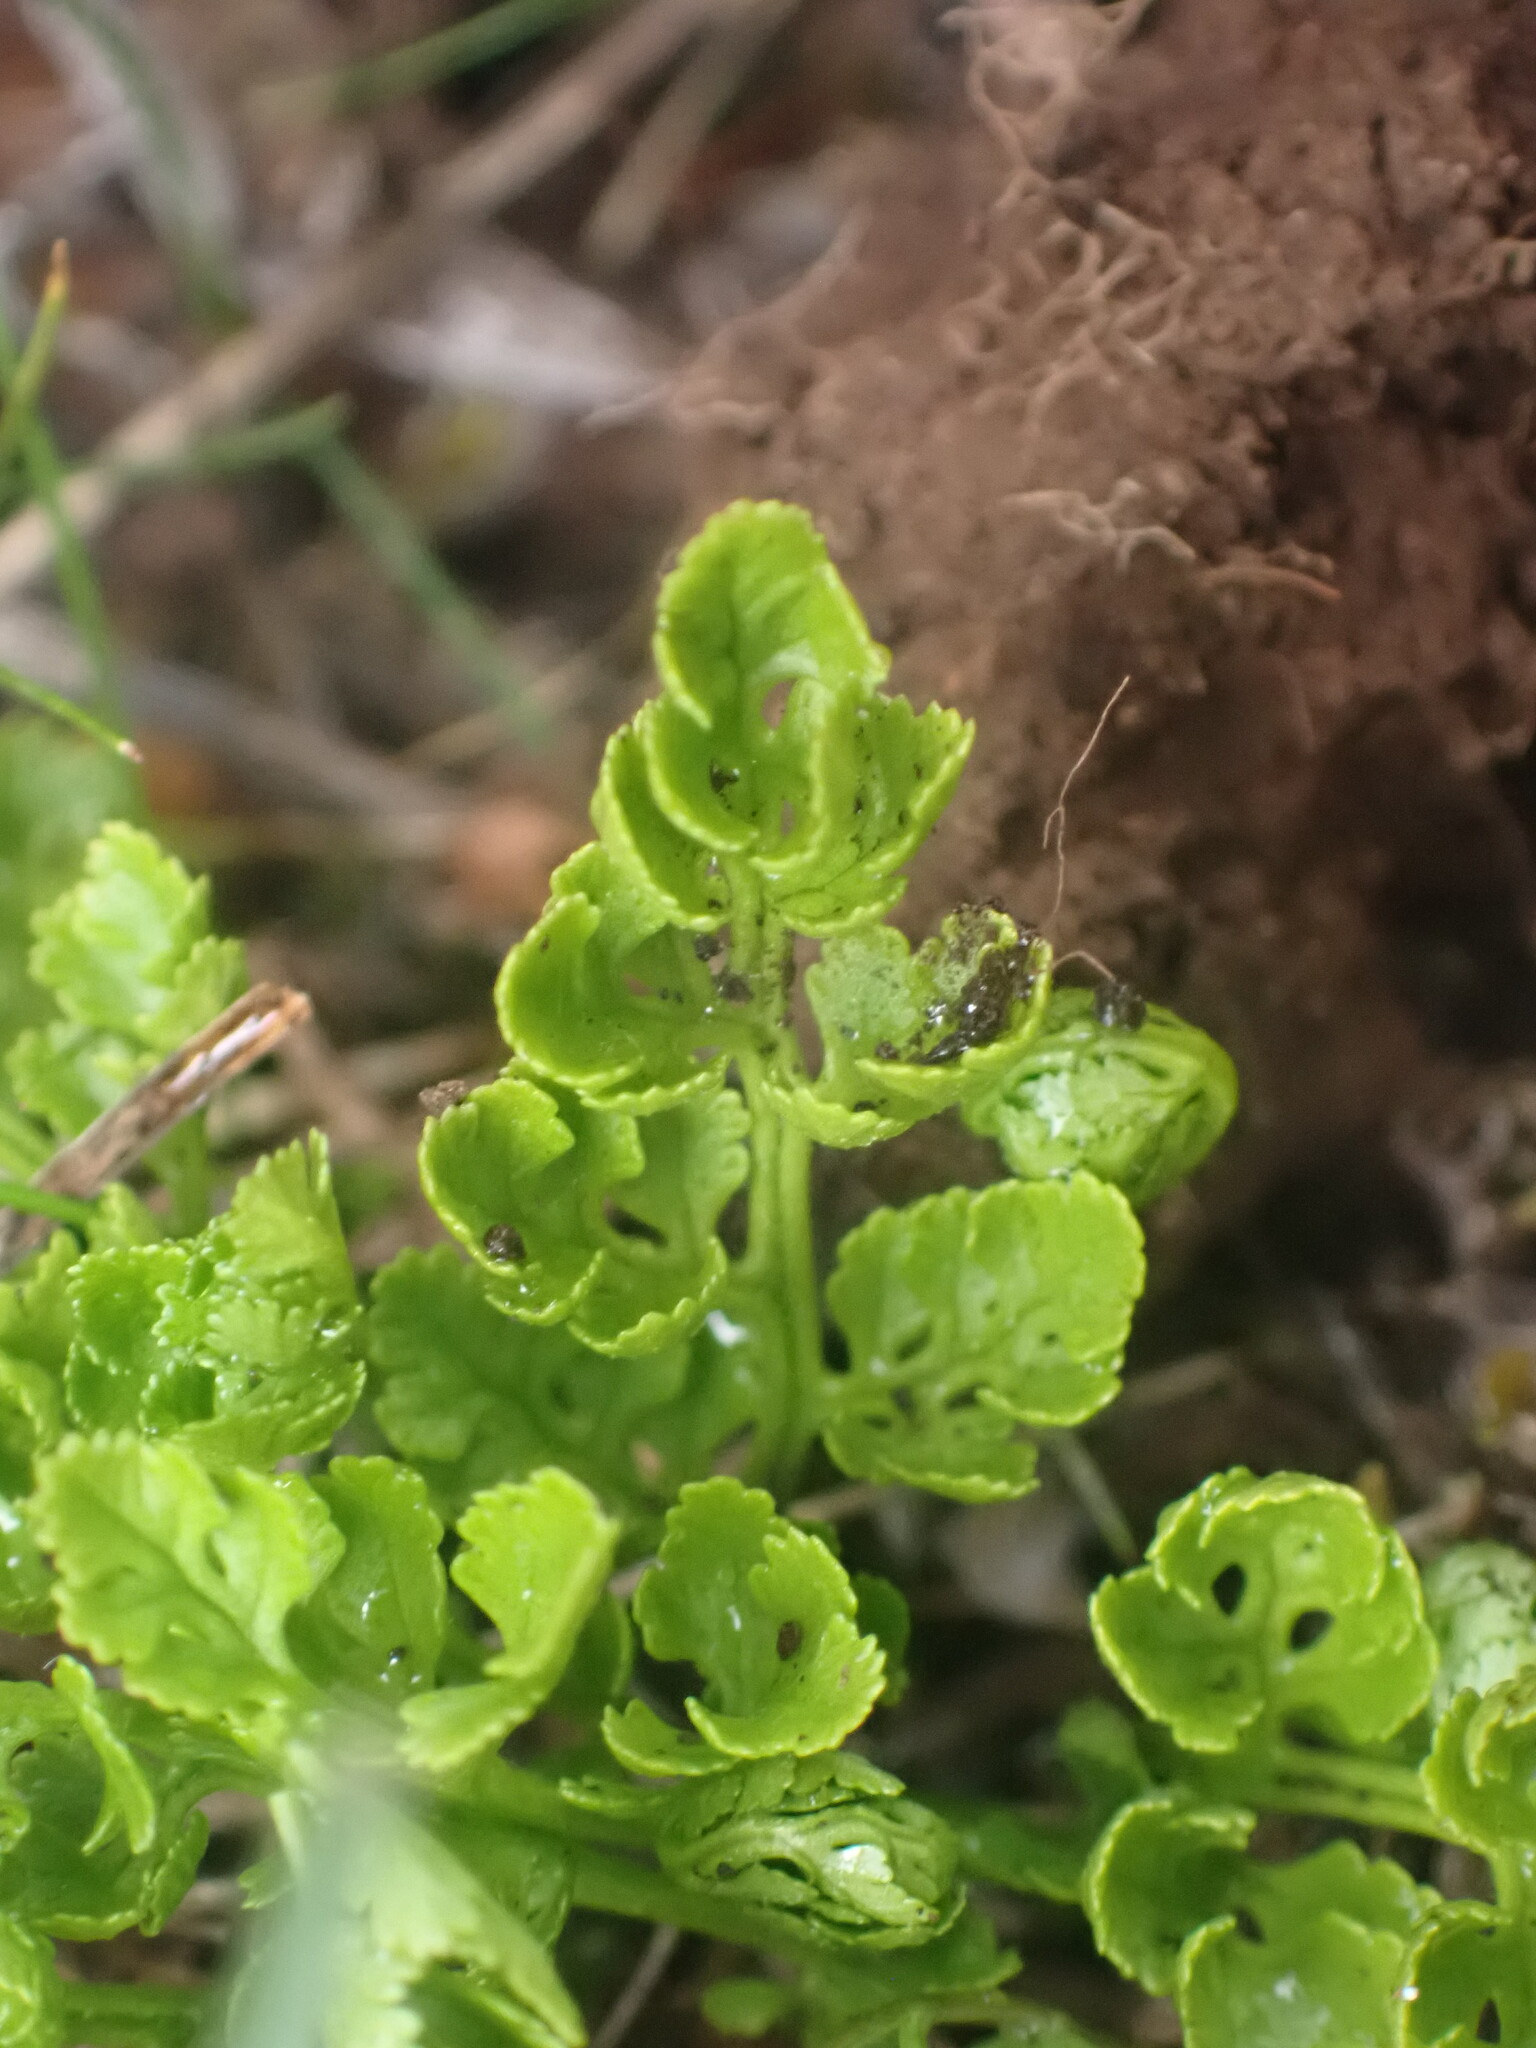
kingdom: Plantae
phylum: Tracheophyta
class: Polypodiopsida
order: Polypodiales
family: Pteridaceae
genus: Cryptogramma
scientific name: Cryptogramma acrostichoides
